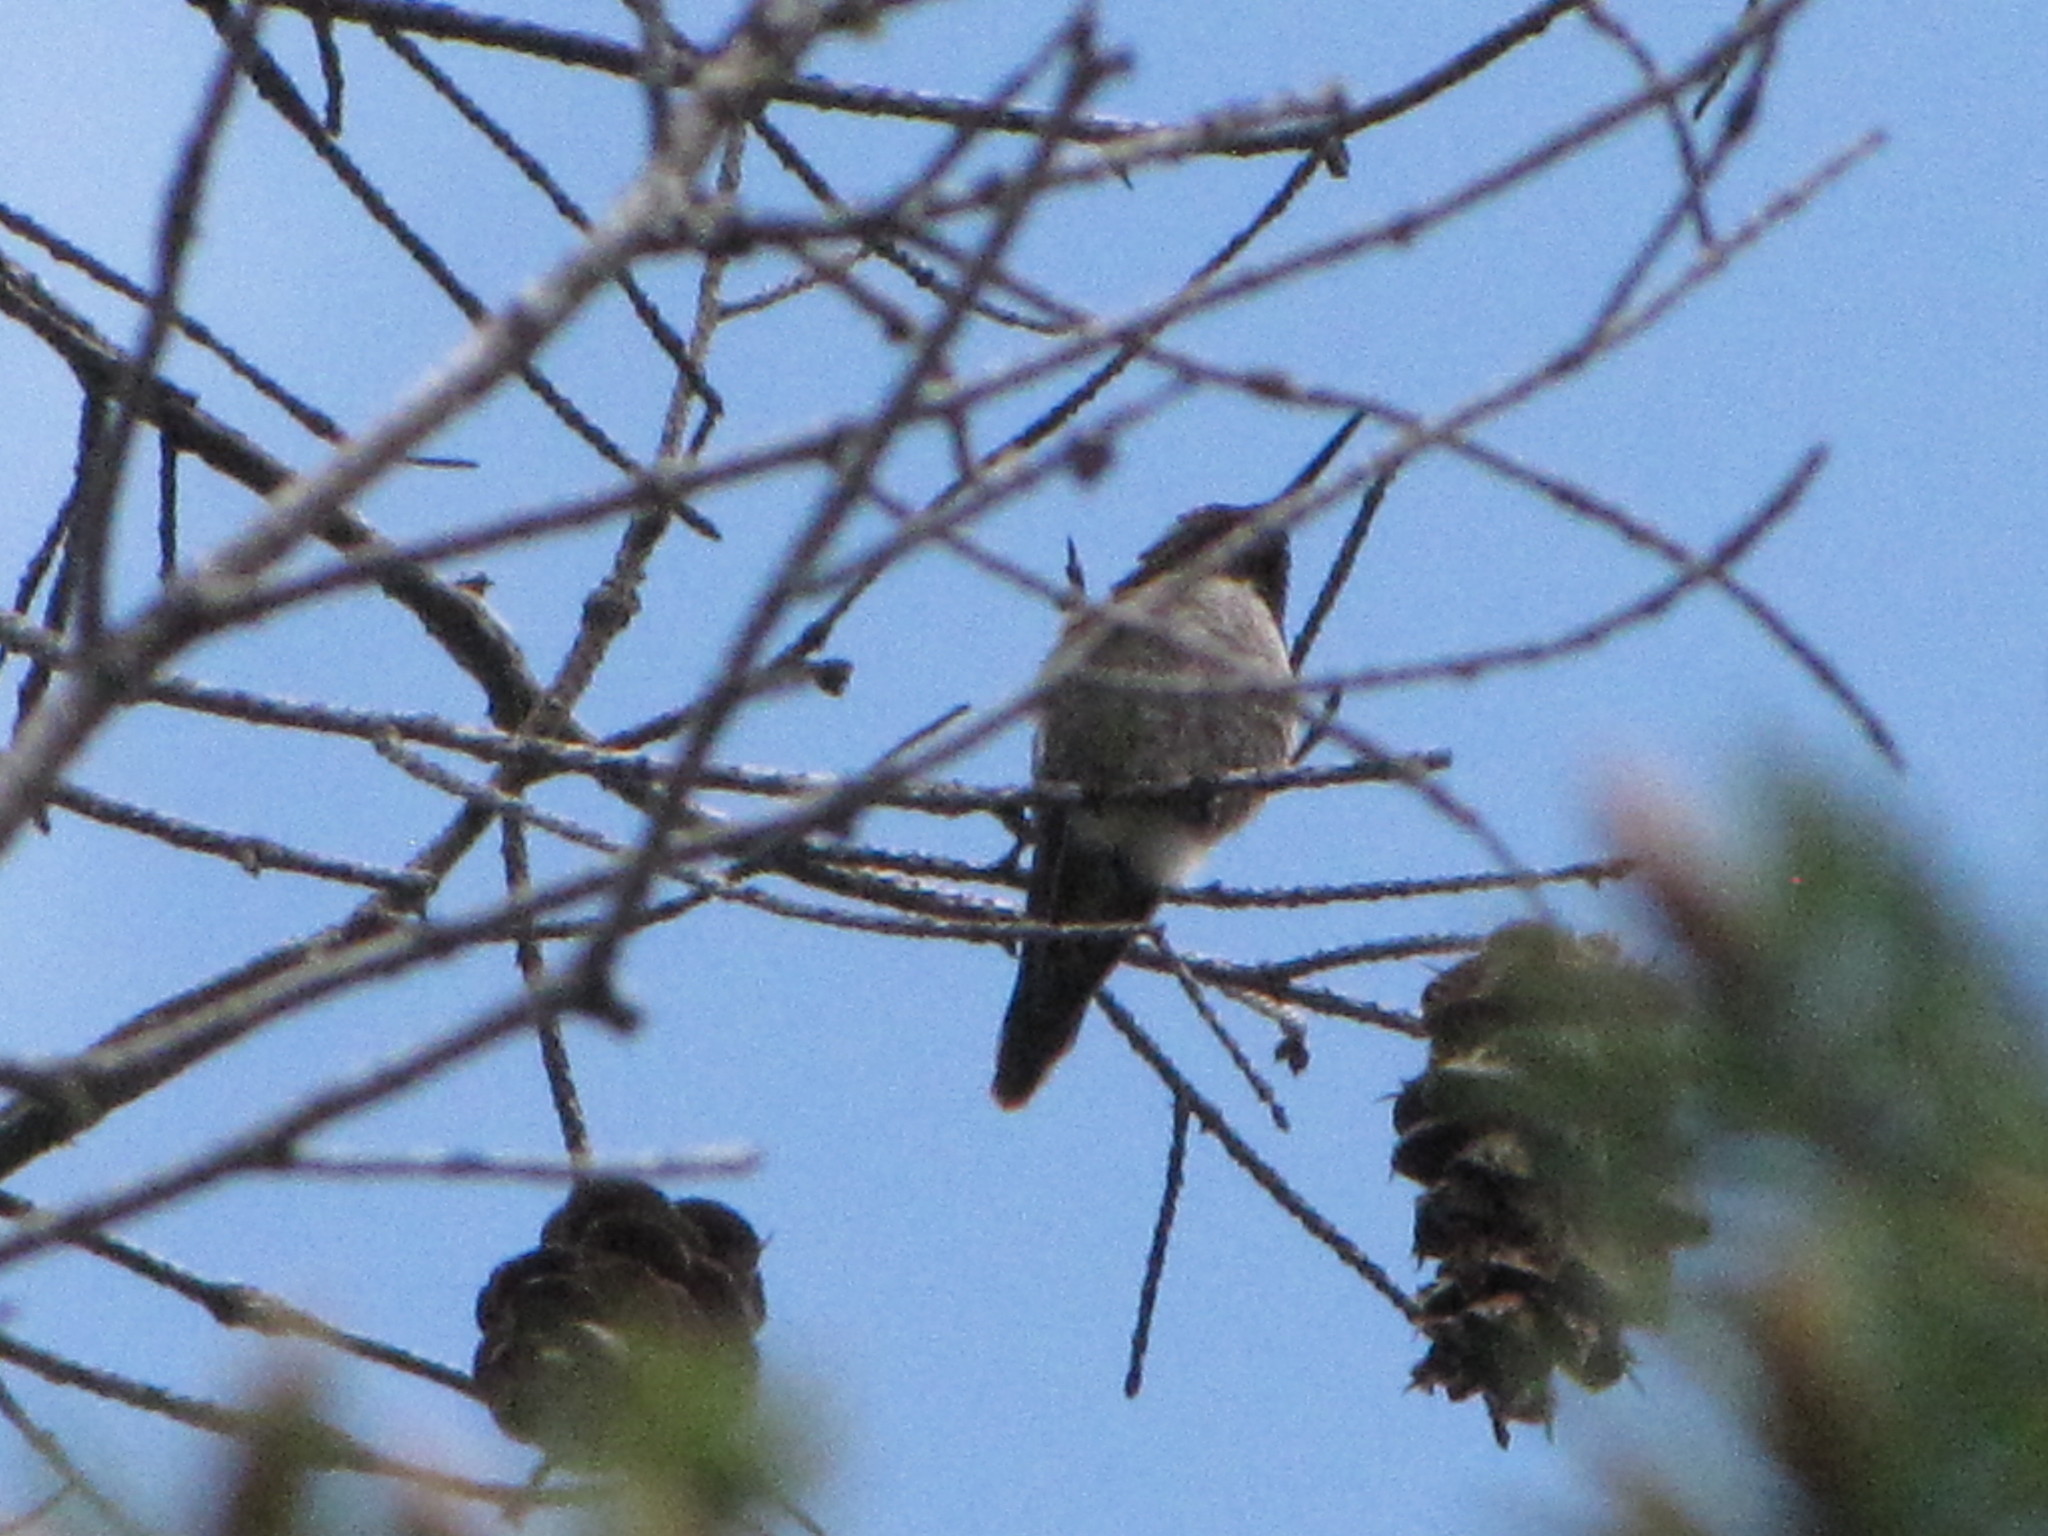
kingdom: Animalia
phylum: Chordata
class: Aves
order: Apodiformes
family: Trochilidae
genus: Calypte
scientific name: Calypte anna
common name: Anna's hummingbird
